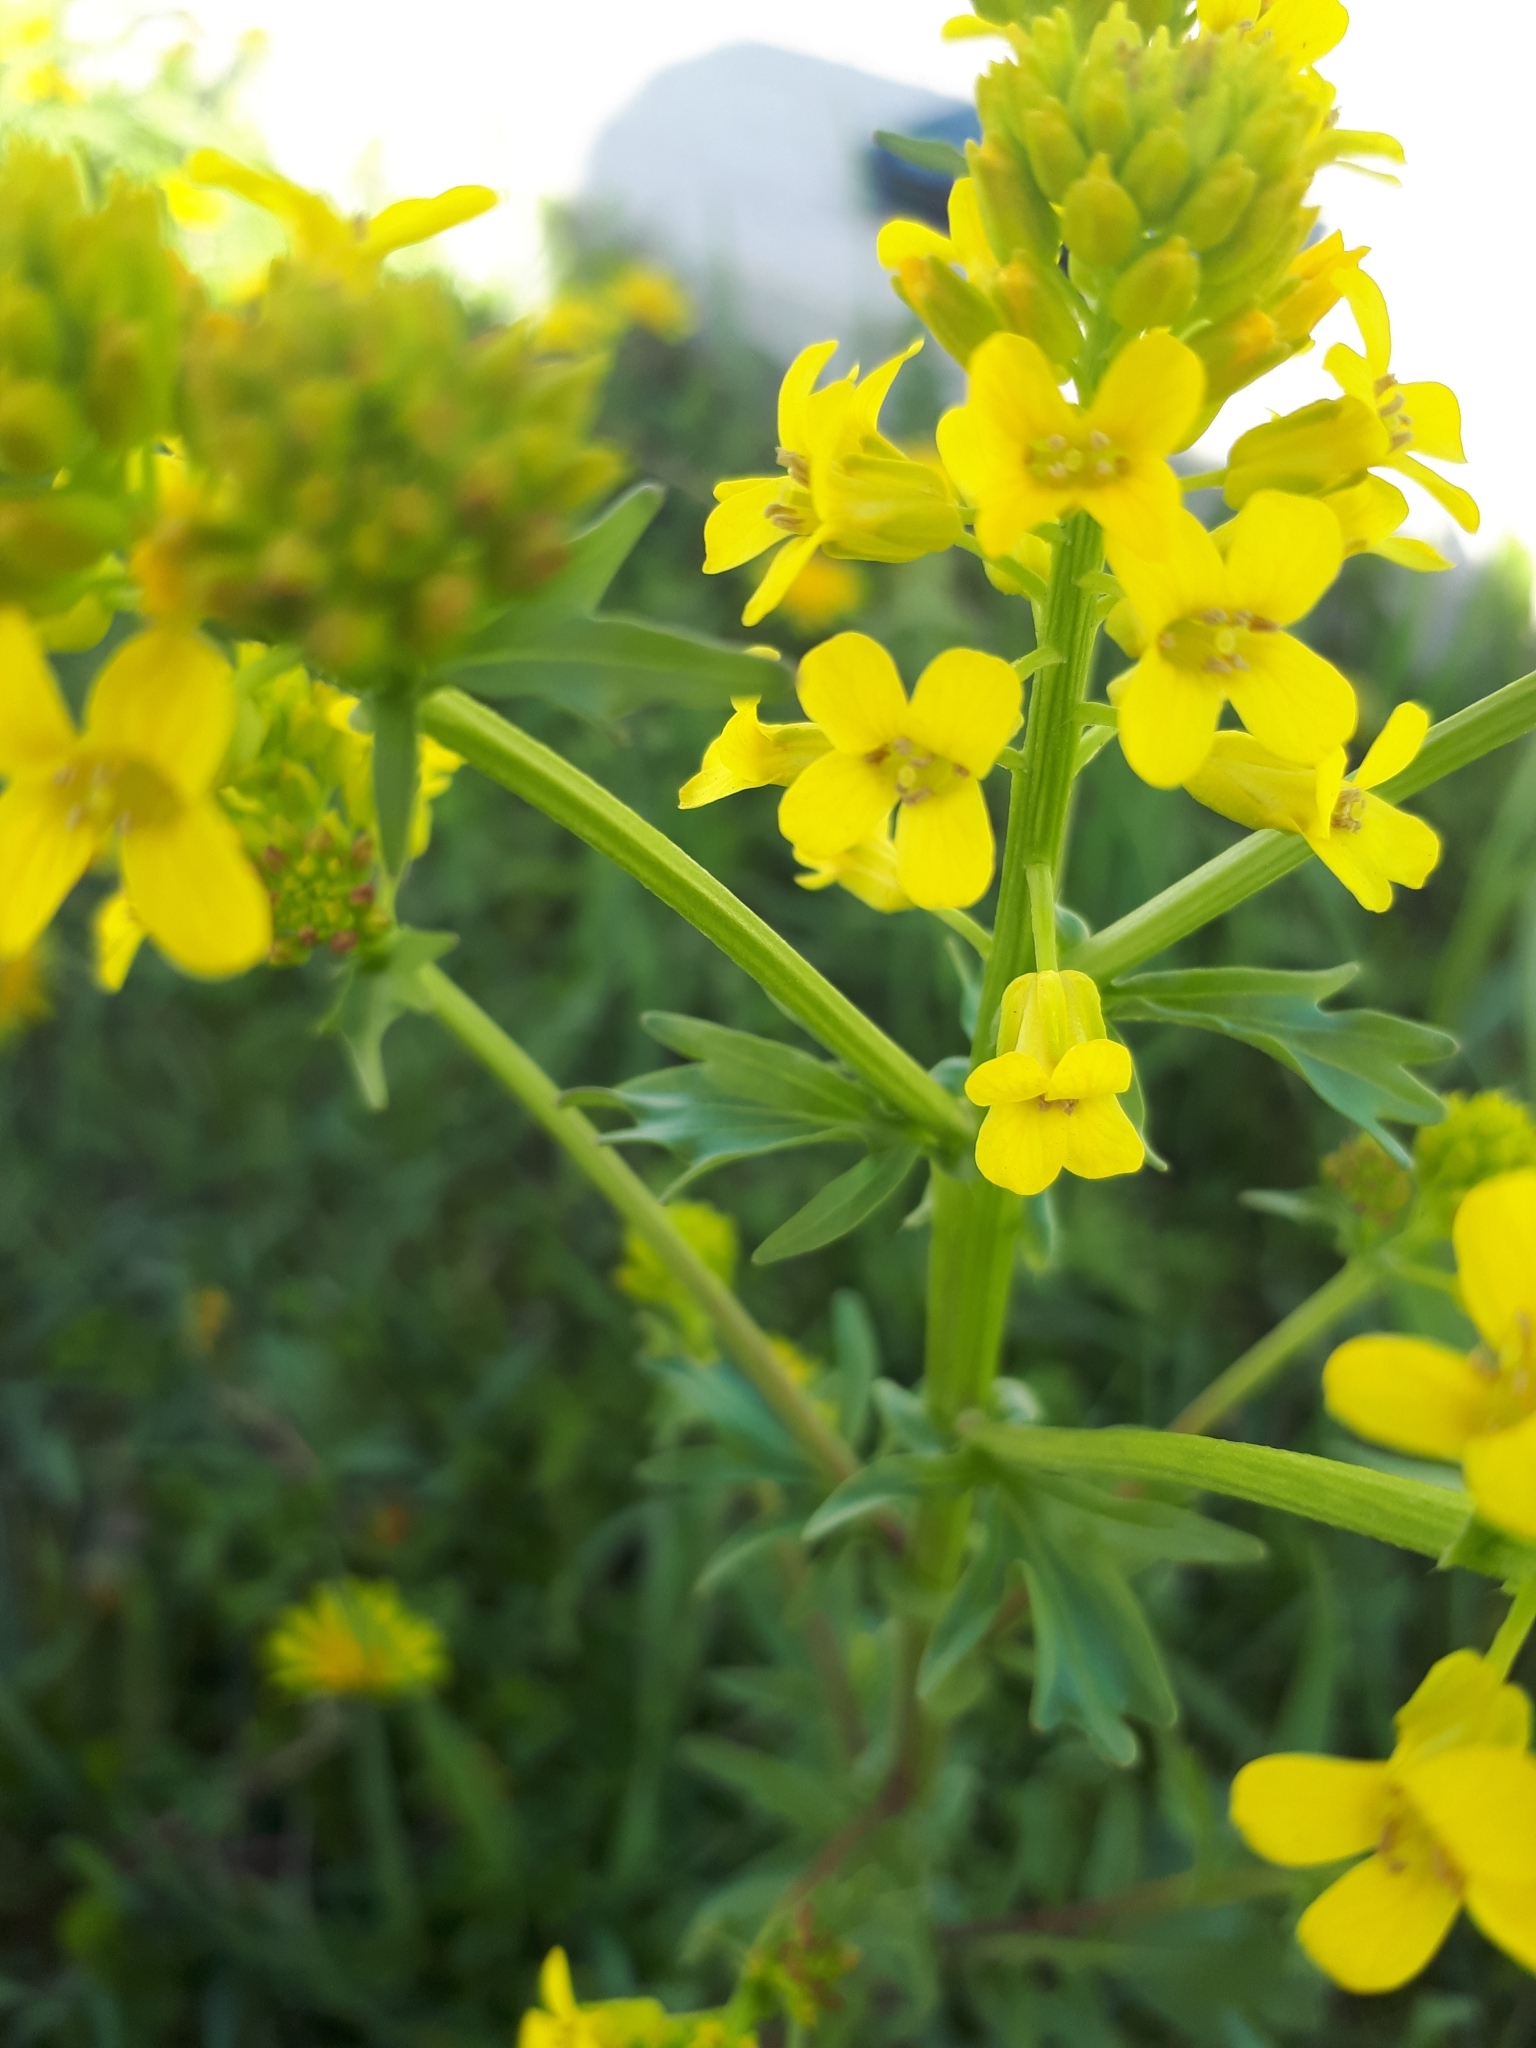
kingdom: Plantae
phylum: Tracheophyta
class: Magnoliopsida
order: Brassicales
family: Brassicaceae
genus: Barbarea
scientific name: Barbarea vulgaris
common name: Cressy-greens
